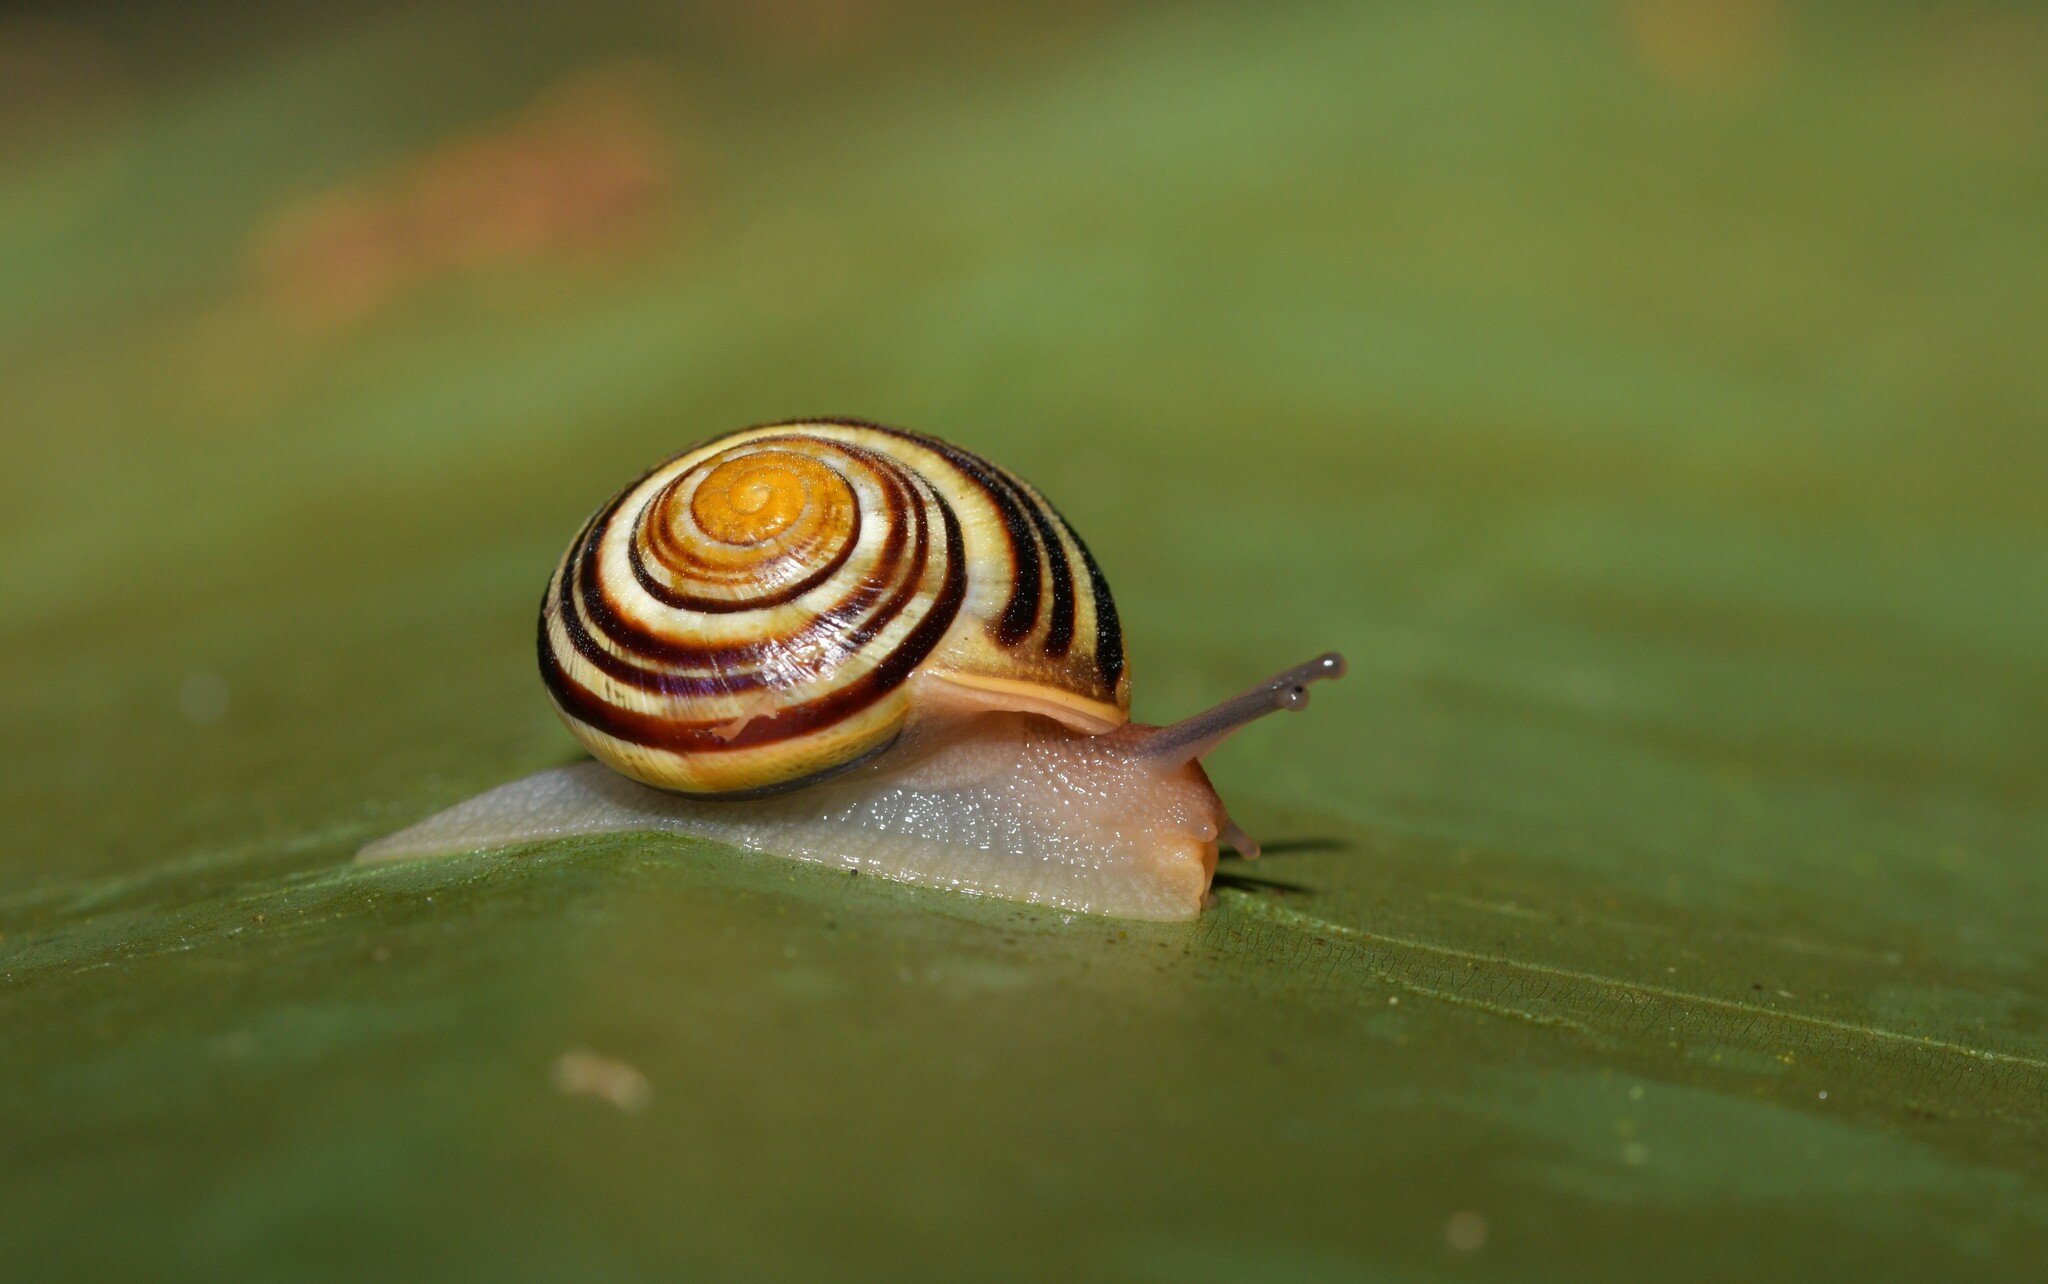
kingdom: Animalia
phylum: Mollusca
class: Gastropoda
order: Stylommatophora
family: Helicidae
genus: Cepaea
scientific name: Cepaea nemoralis
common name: Grovesnail
